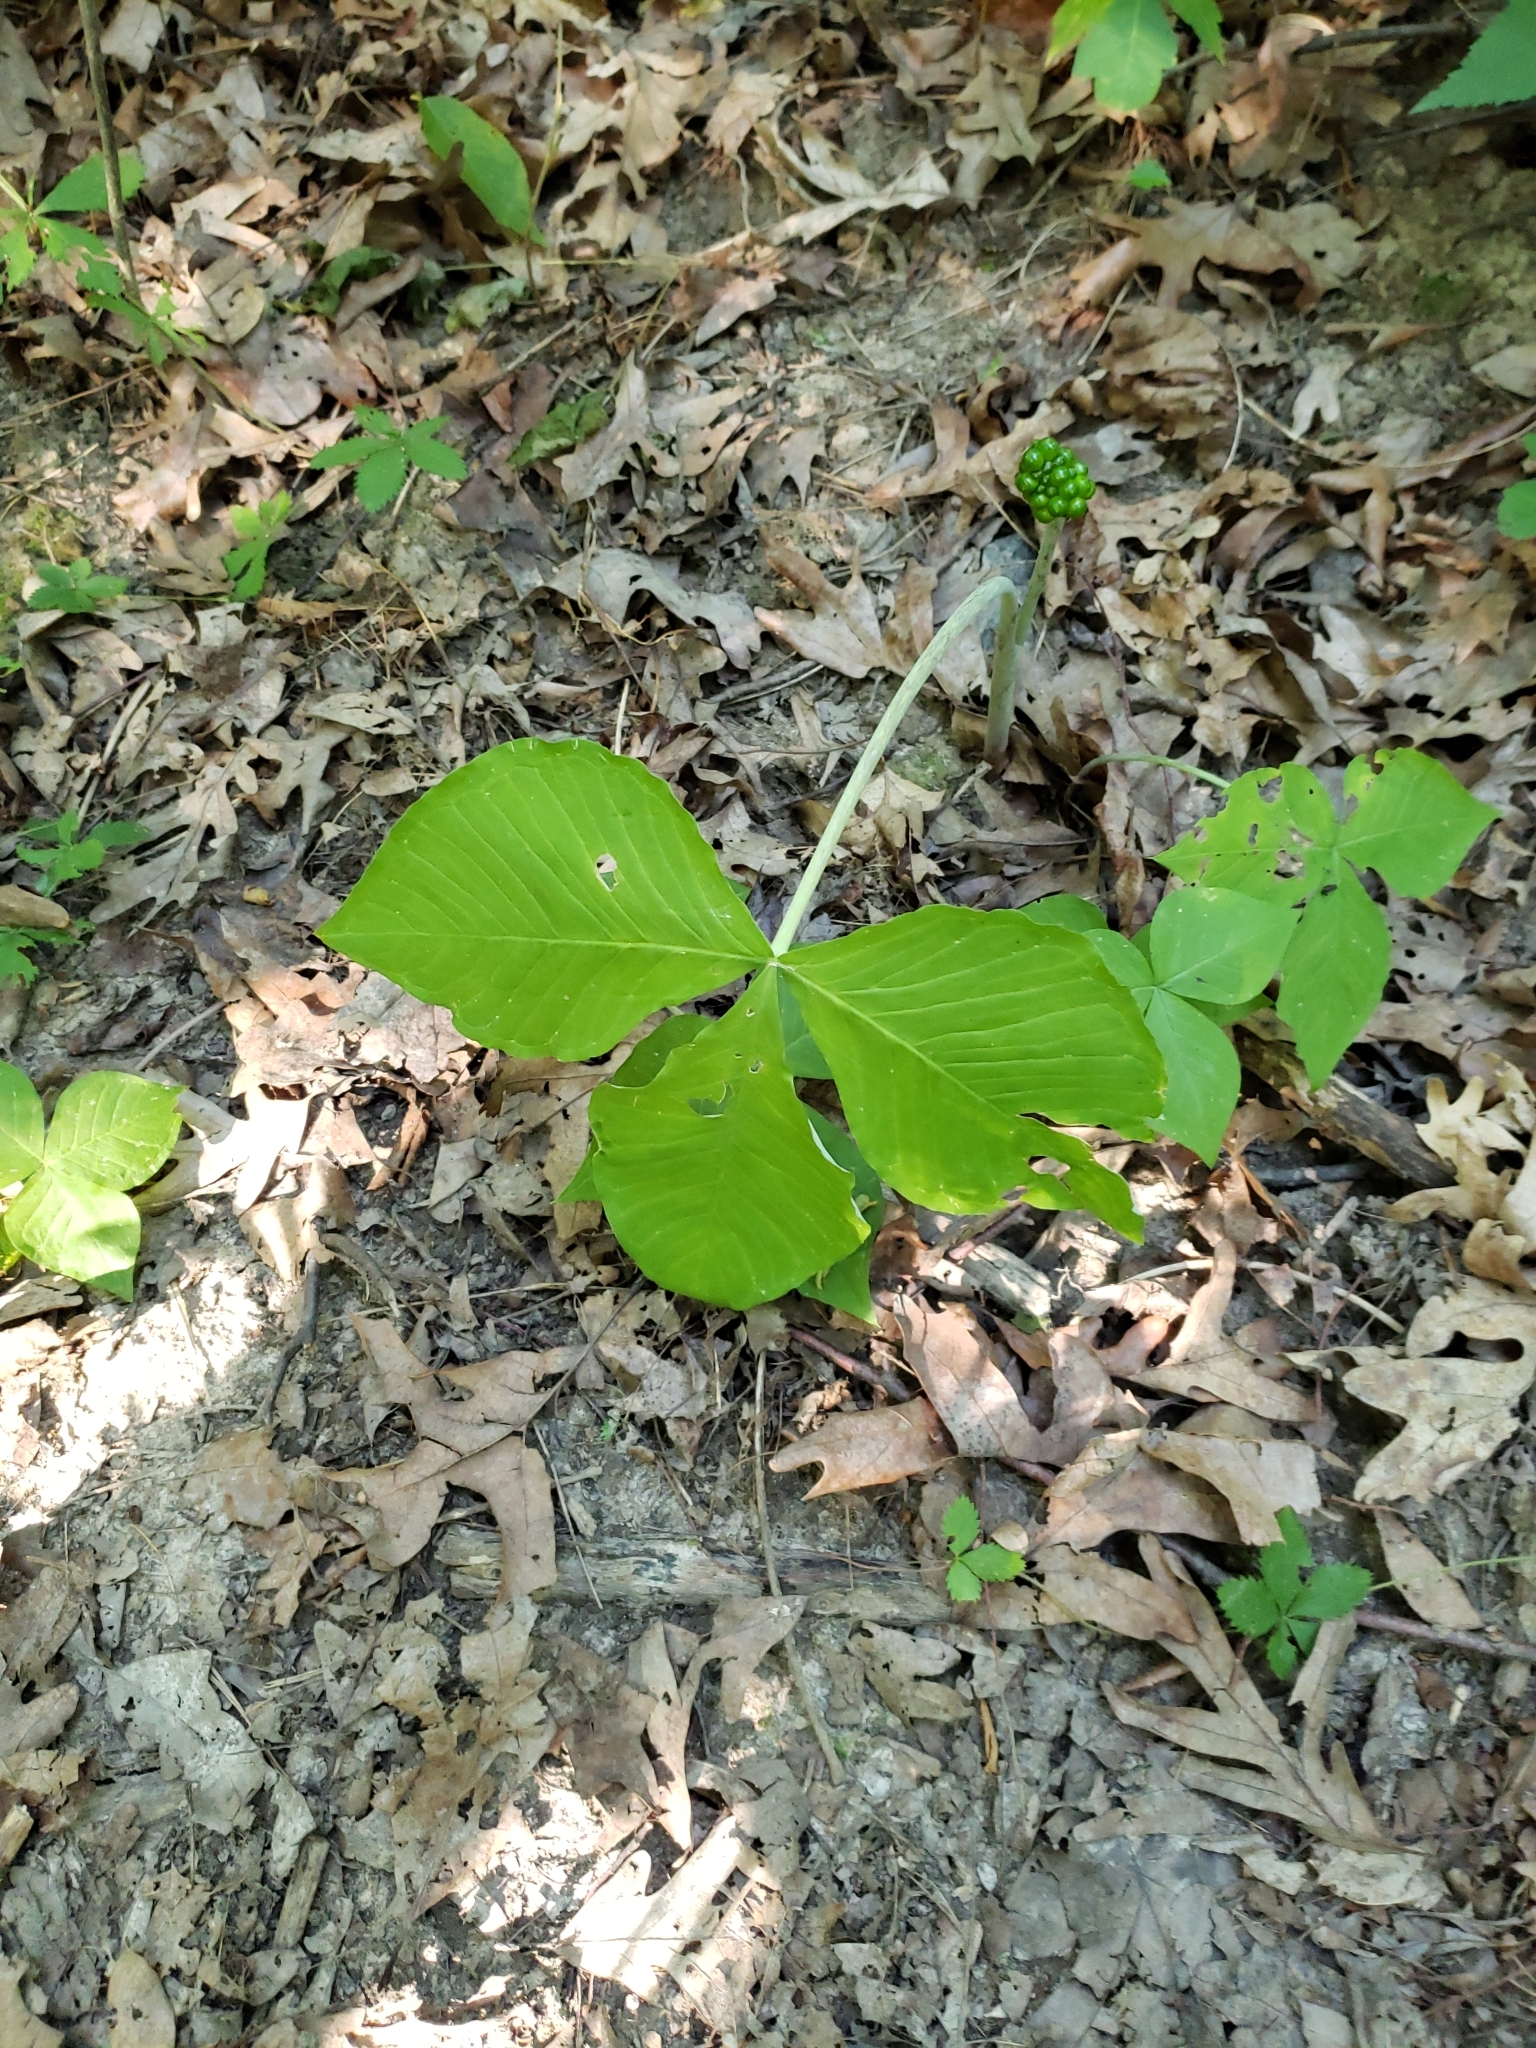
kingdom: Plantae
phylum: Tracheophyta
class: Liliopsida
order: Alismatales
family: Araceae
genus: Arisaema
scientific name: Arisaema triphyllum
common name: Jack-in-the-pulpit
